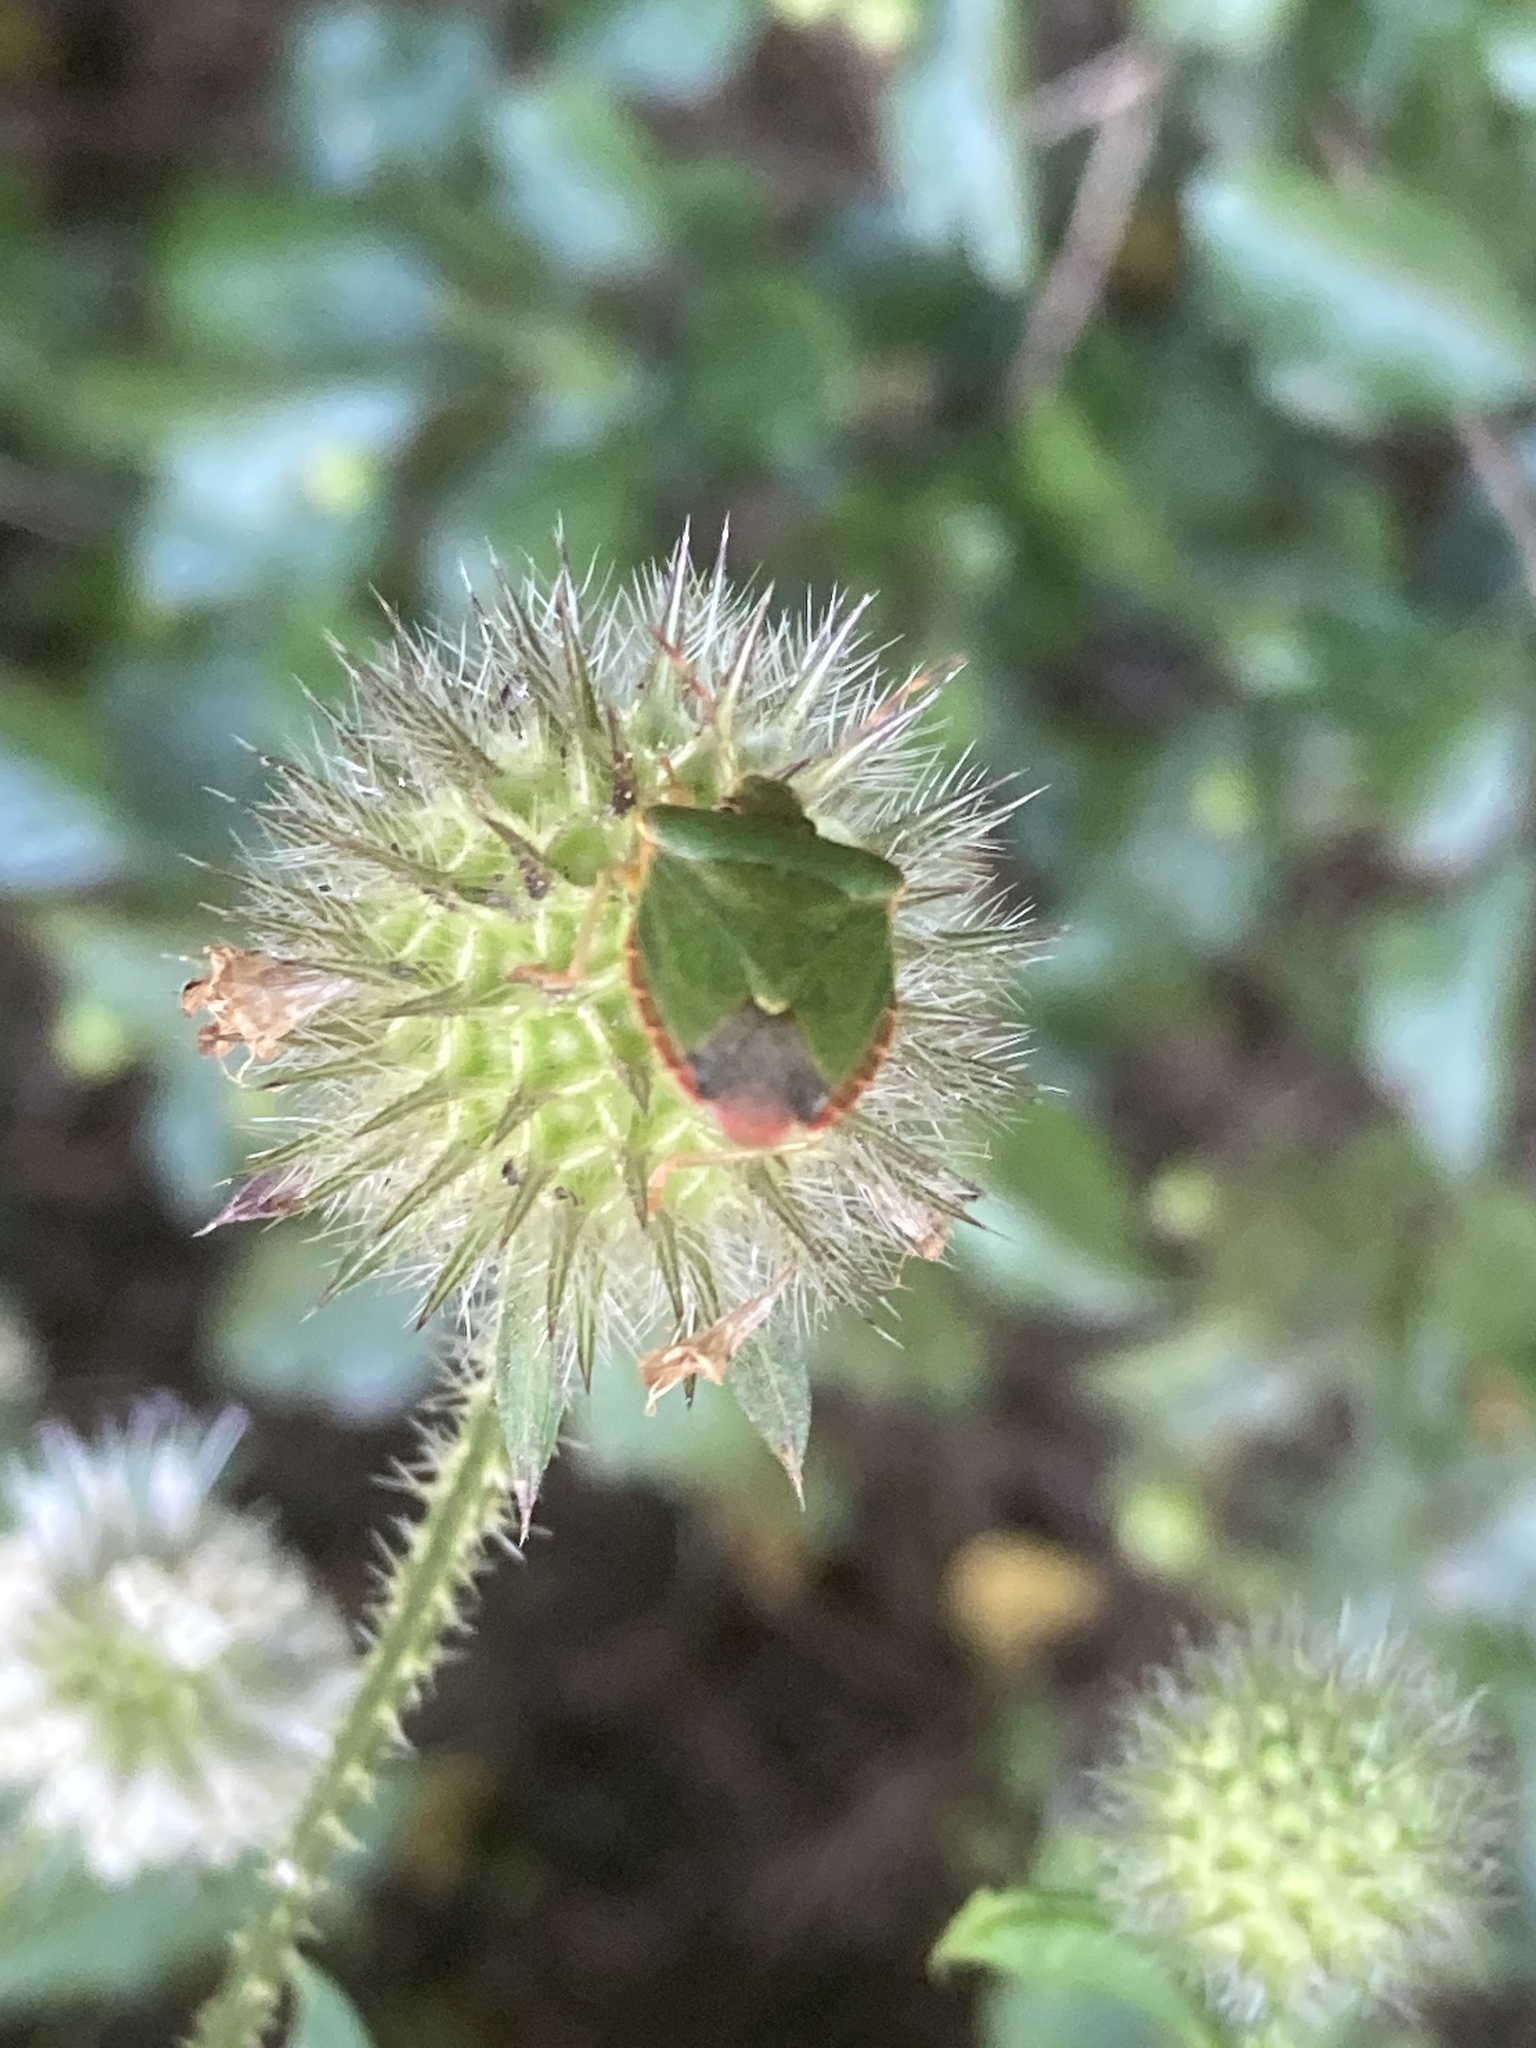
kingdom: Animalia
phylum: Arthropoda
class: Insecta
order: Hemiptera
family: Pentatomidae
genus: Palomena
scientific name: Palomena prasina
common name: Green shieldbug
